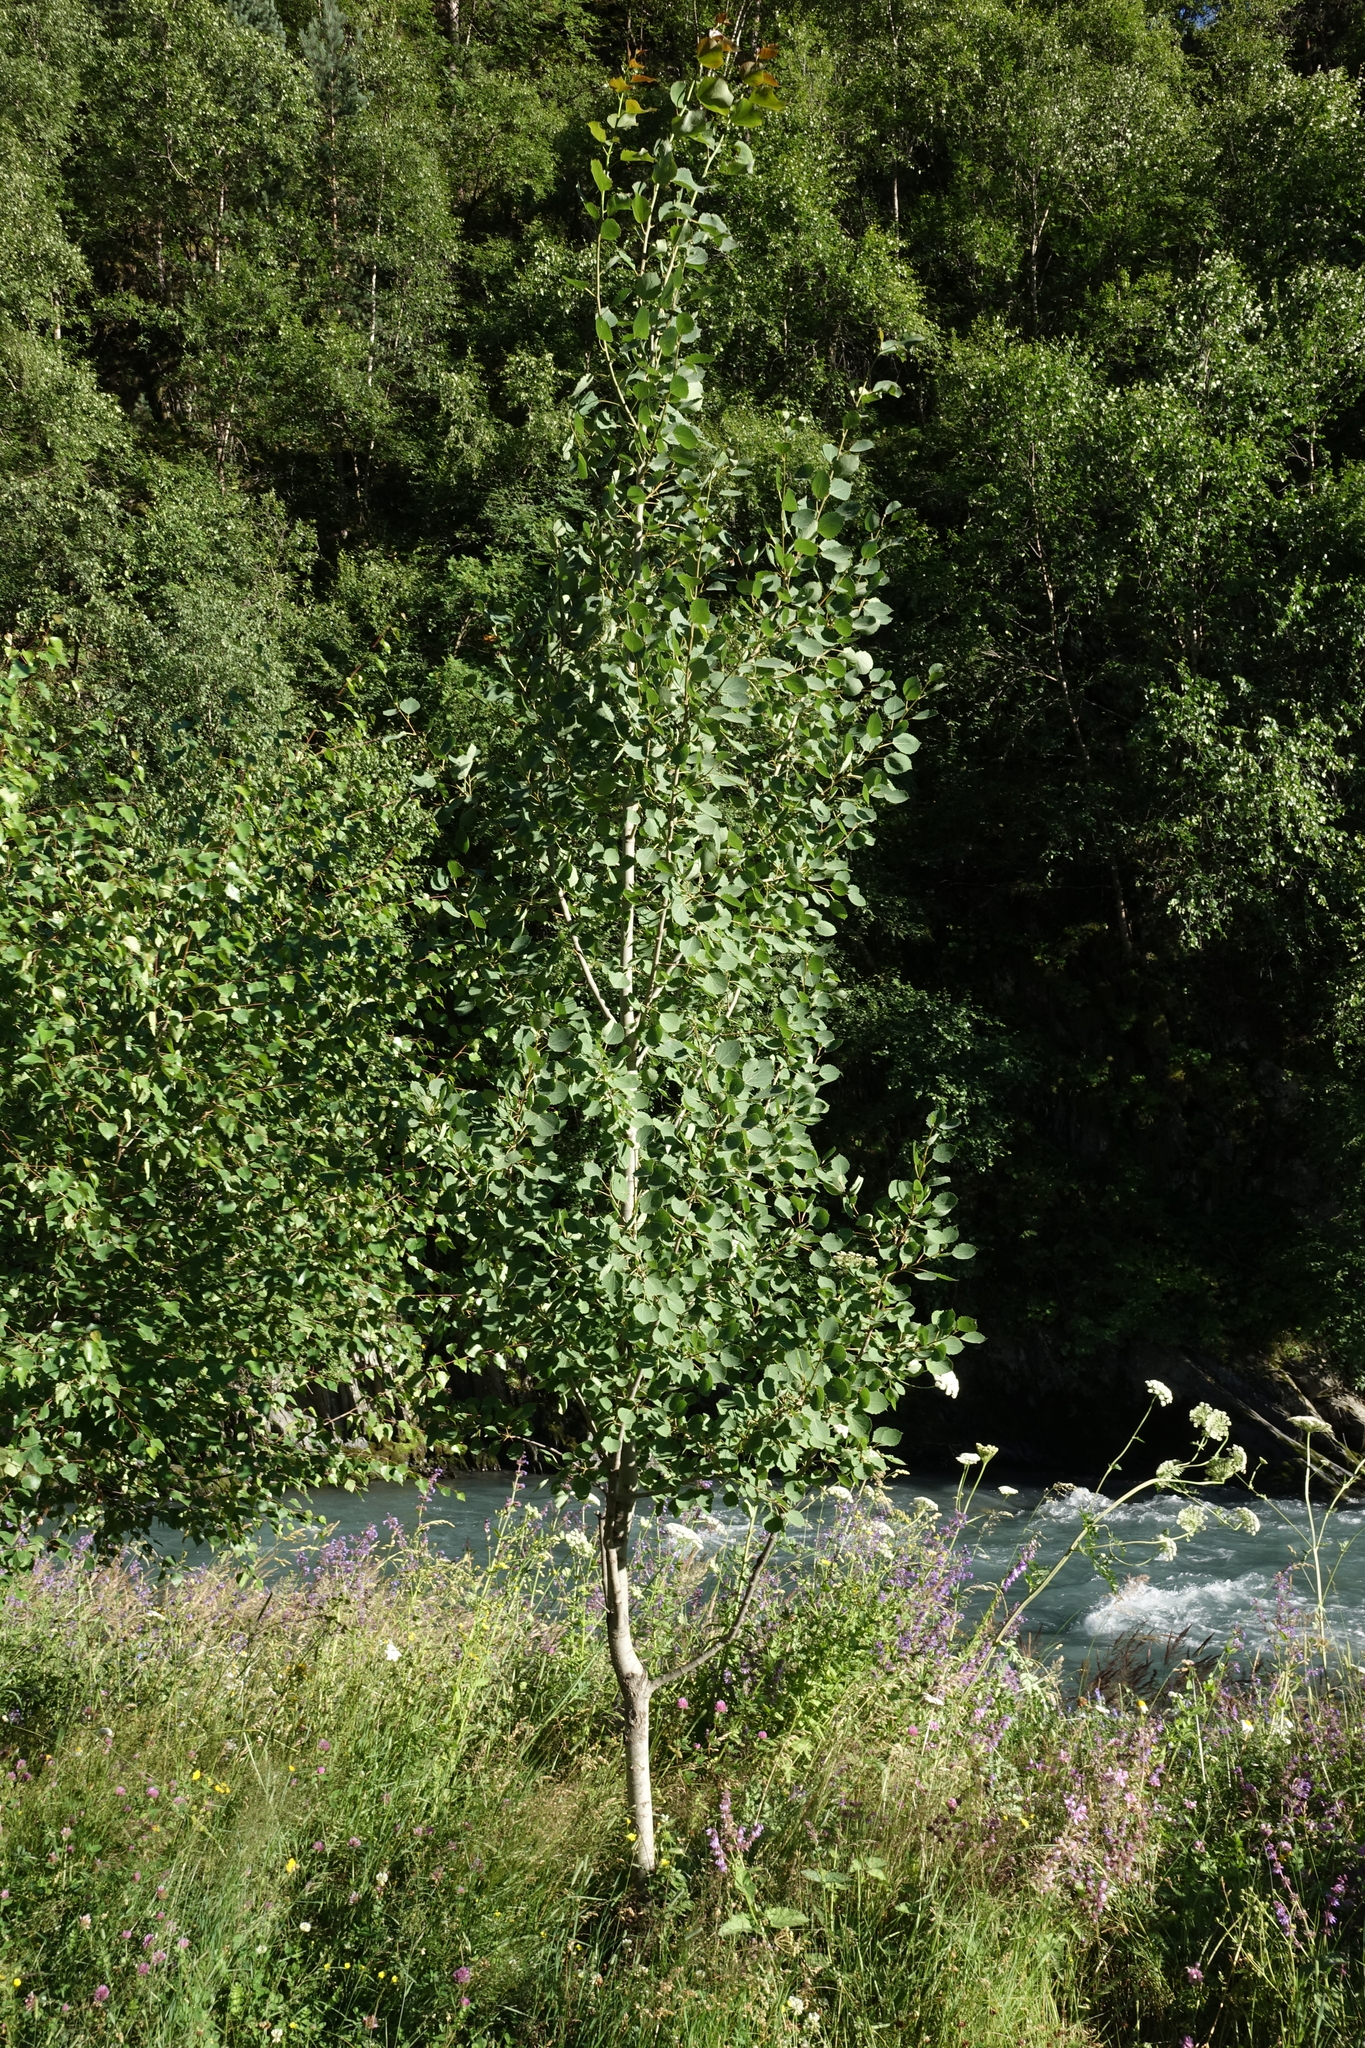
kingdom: Plantae
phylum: Tracheophyta
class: Magnoliopsida
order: Malpighiales
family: Salicaceae
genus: Populus
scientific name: Populus tremula
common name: European aspen
